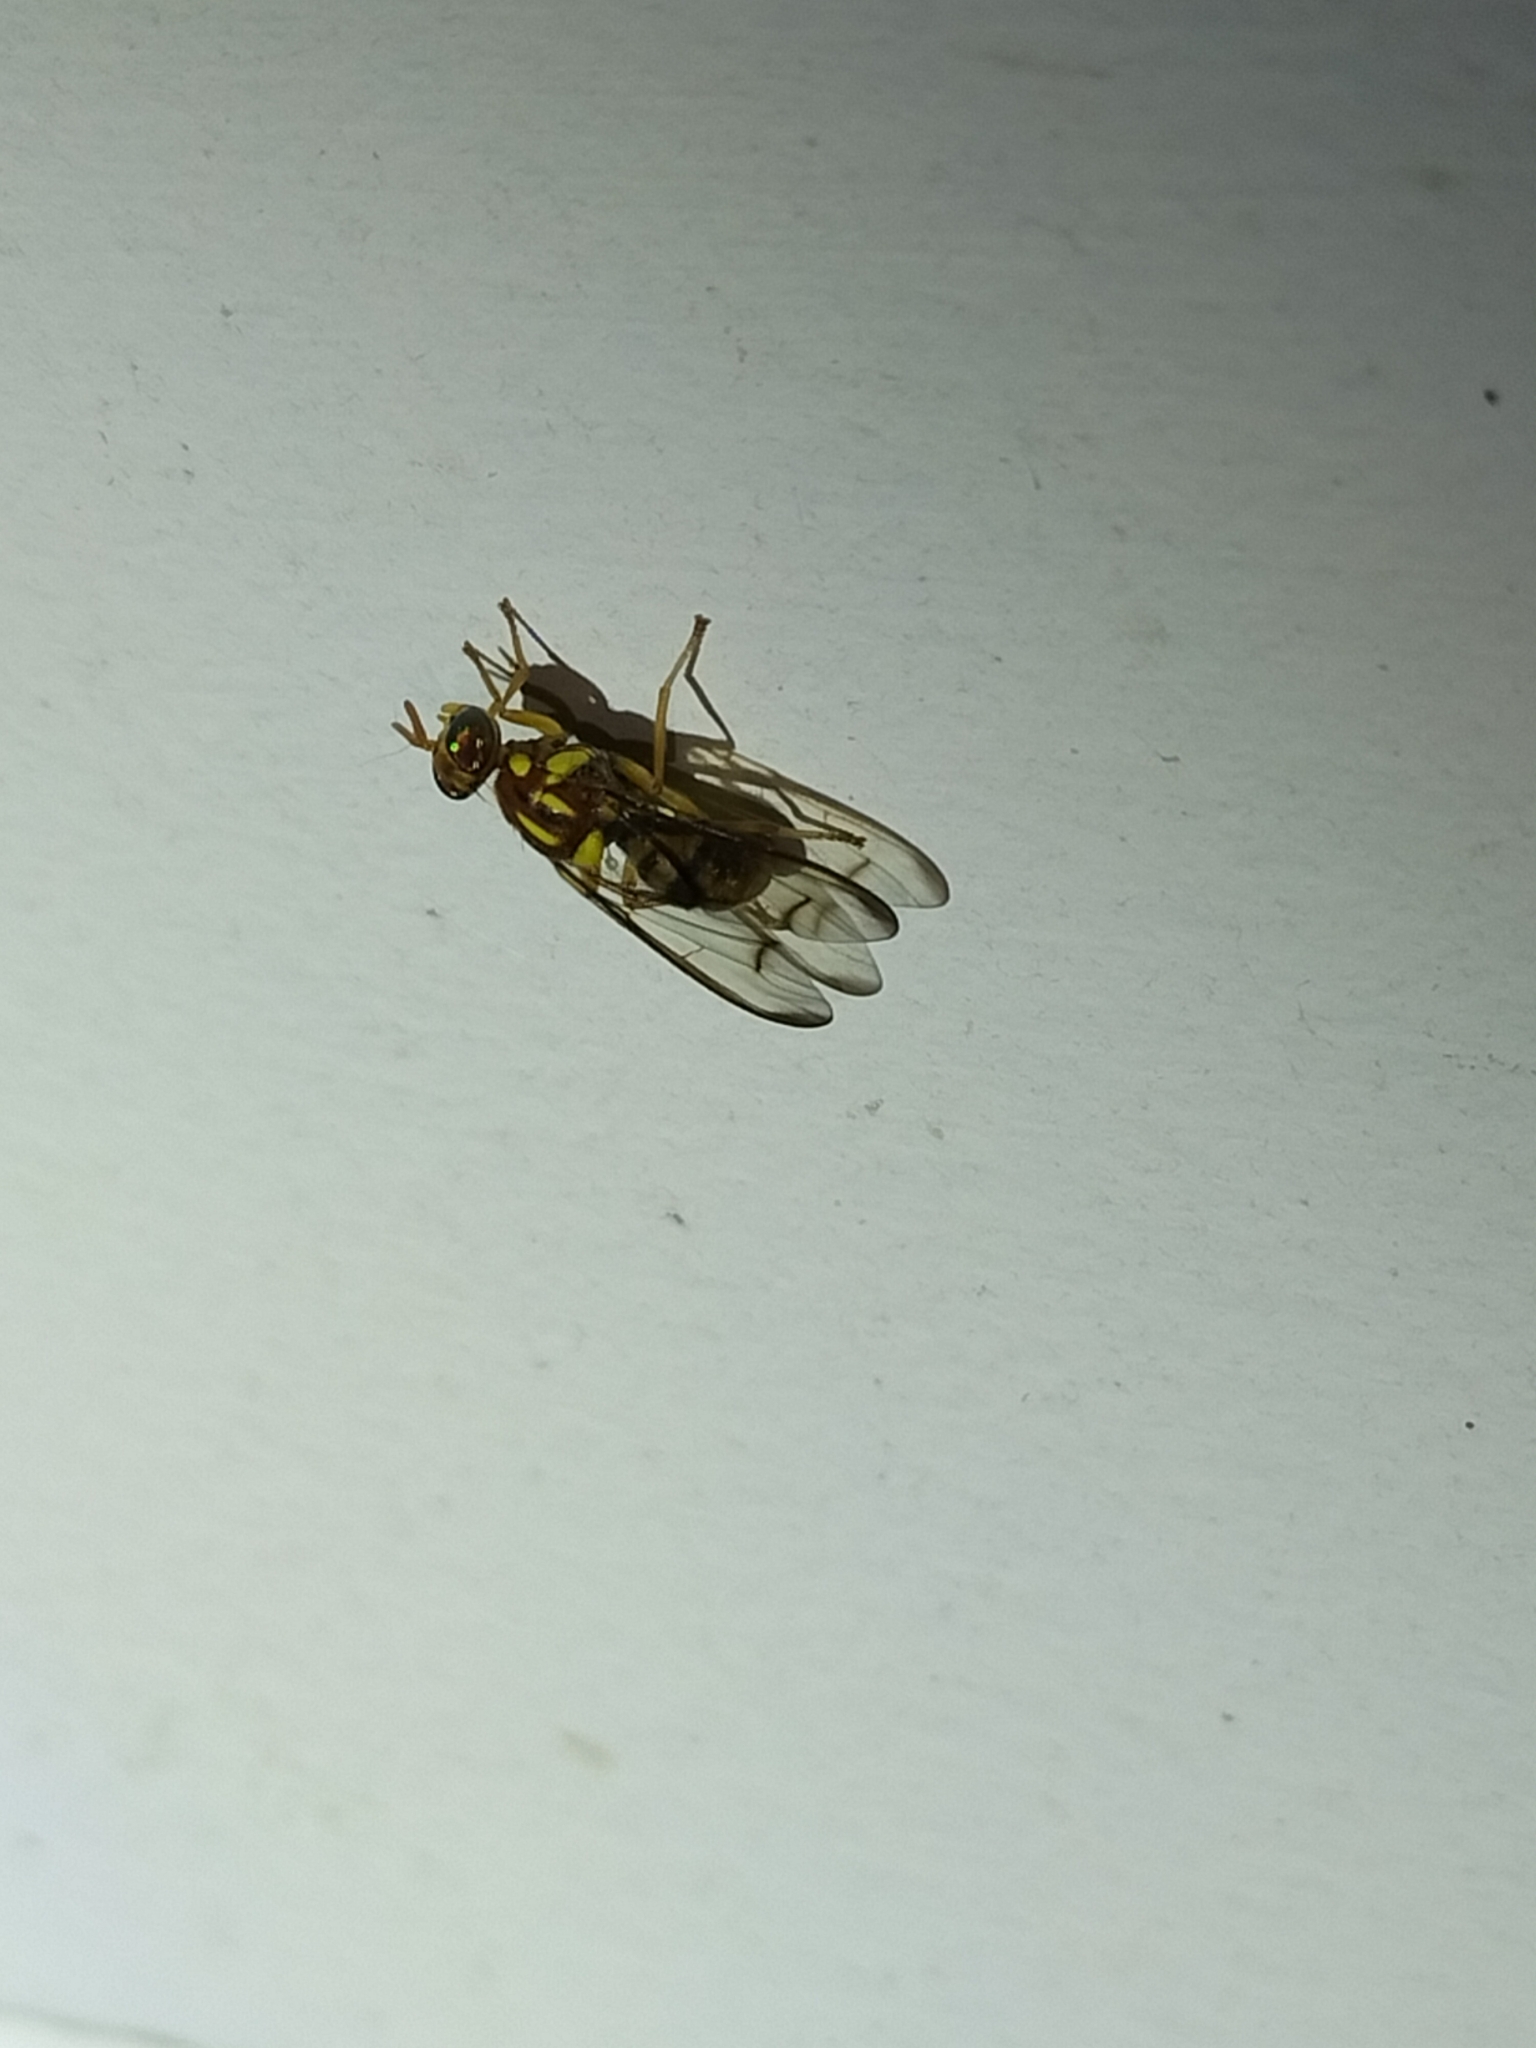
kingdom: Animalia
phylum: Arthropoda
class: Insecta
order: Diptera
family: Tephritidae
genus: Bactrocera
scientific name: Bactrocera chorista
